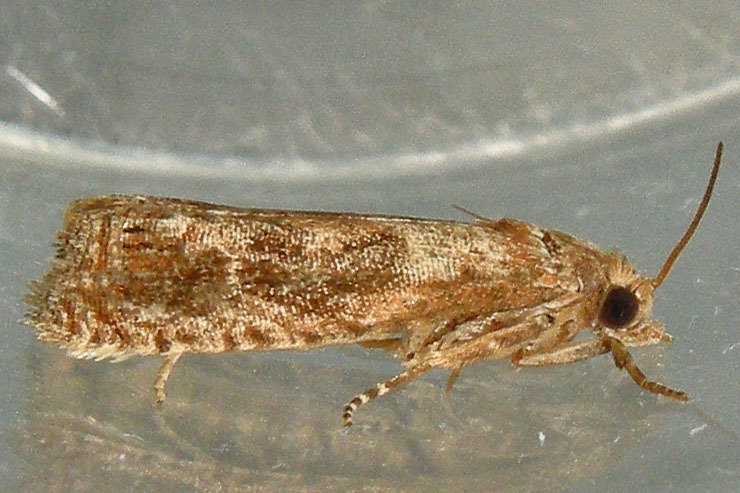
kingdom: Animalia
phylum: Arthropoda
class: Insecta
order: Lepidoptera
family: Tortricidae
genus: Pelochrista
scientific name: Pelochrista vagana
